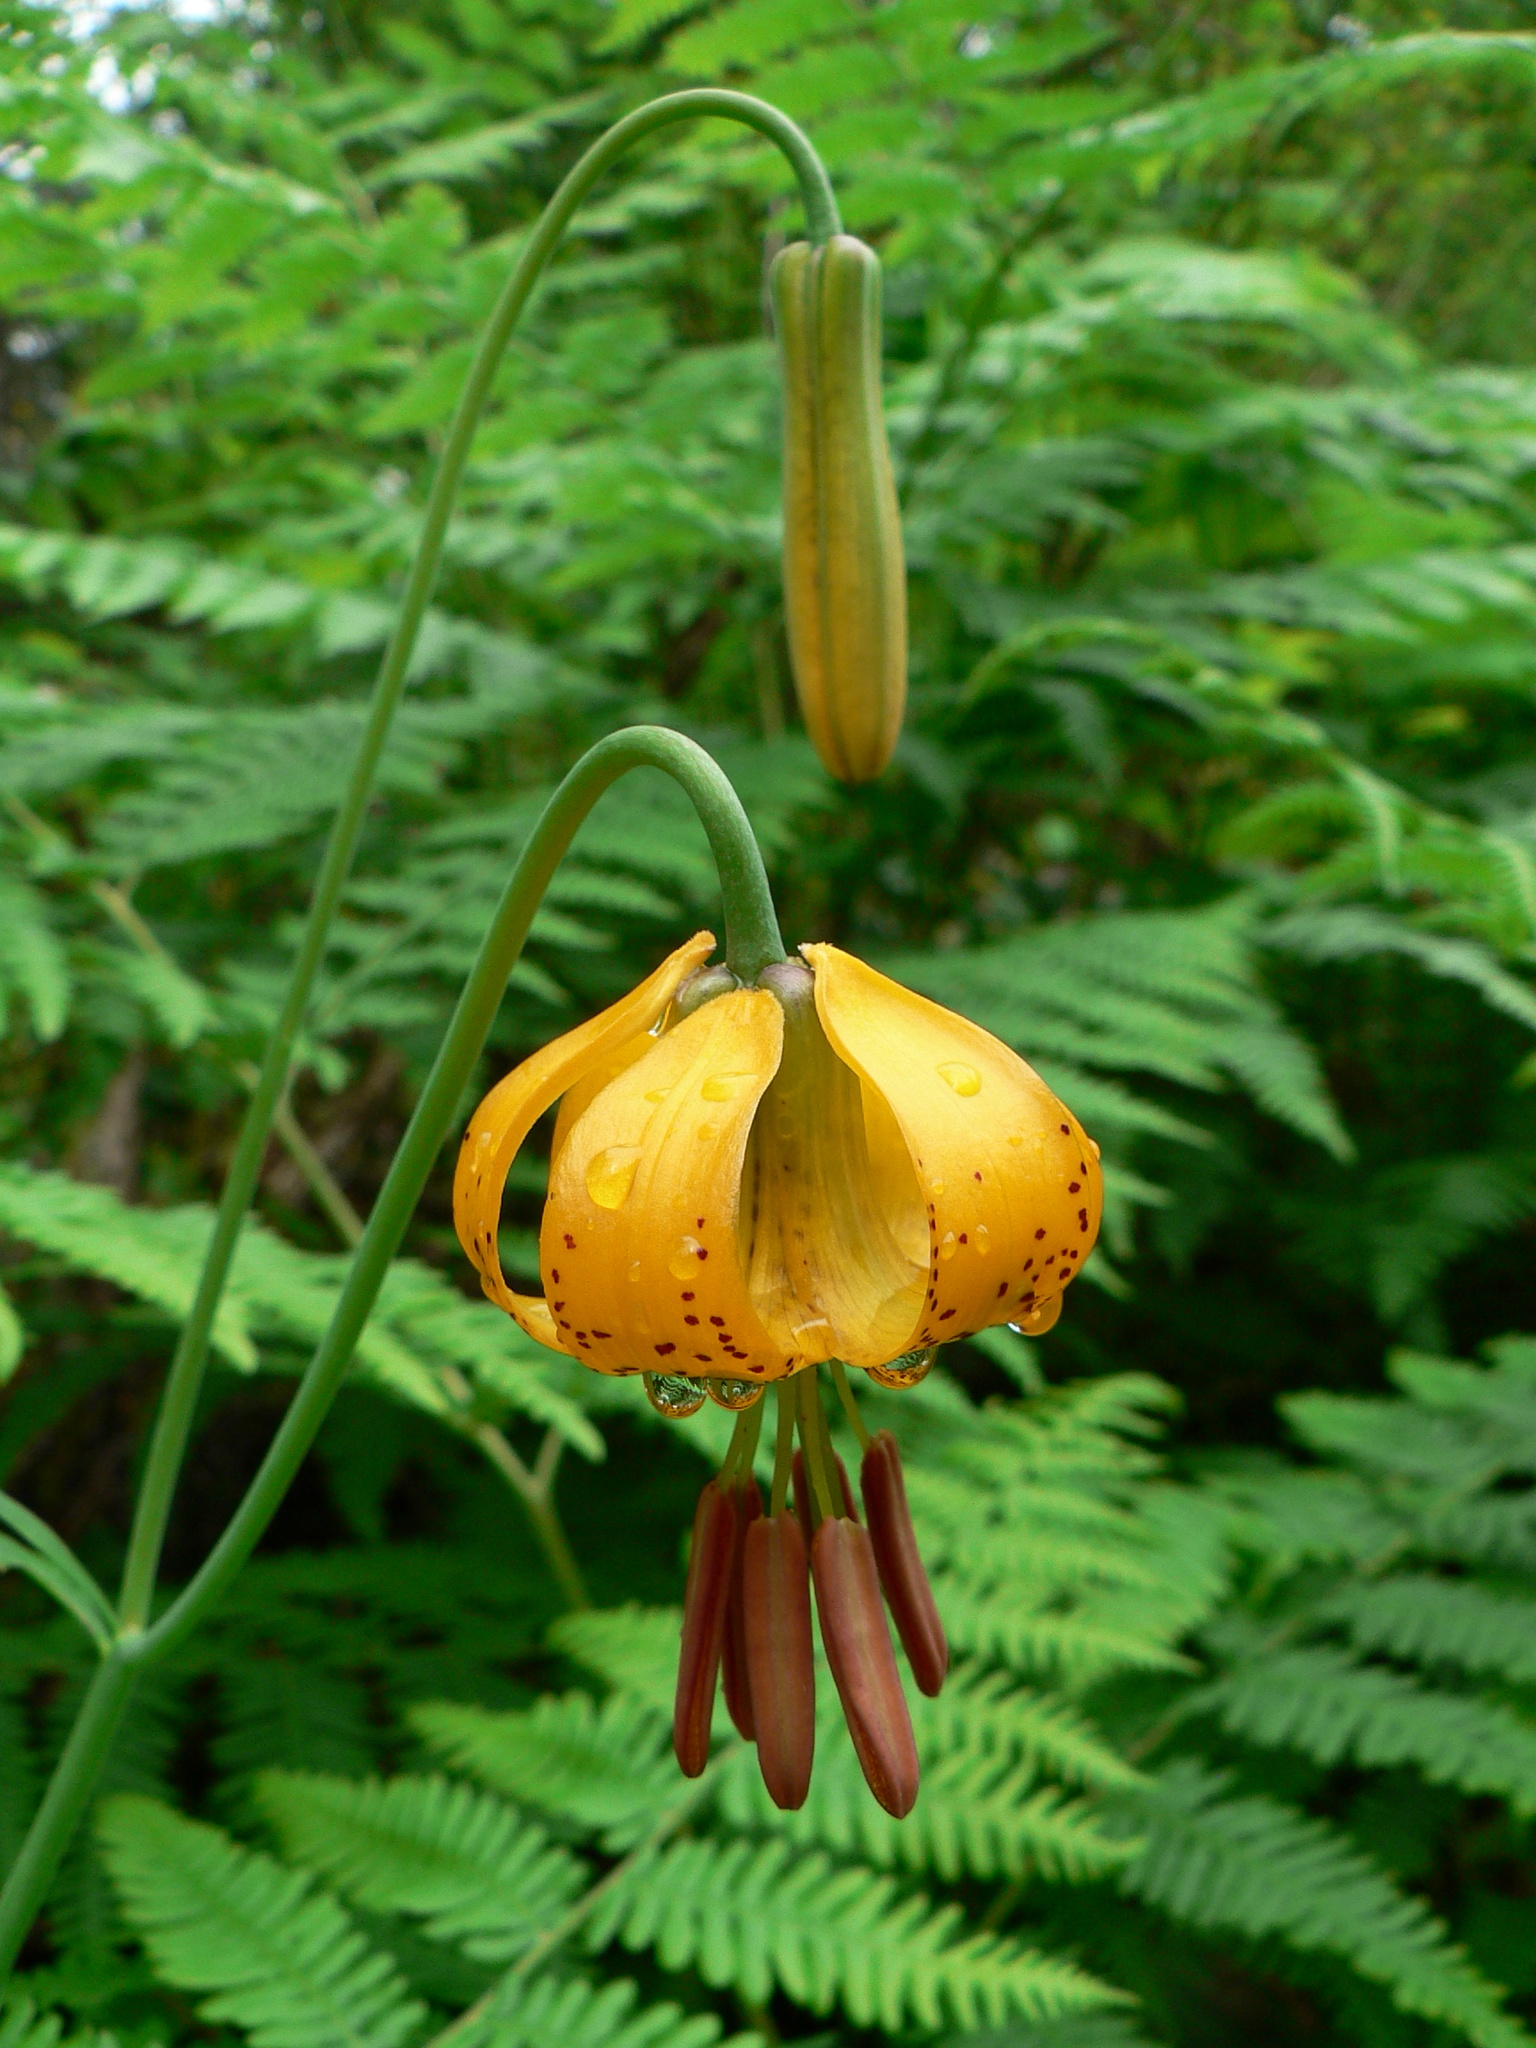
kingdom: Plantae
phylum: Tracheophyta
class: Liliopsida
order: Liliales
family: Liliaceae
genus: Lilium
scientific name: Lilium columbianum
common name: Columbia lily
